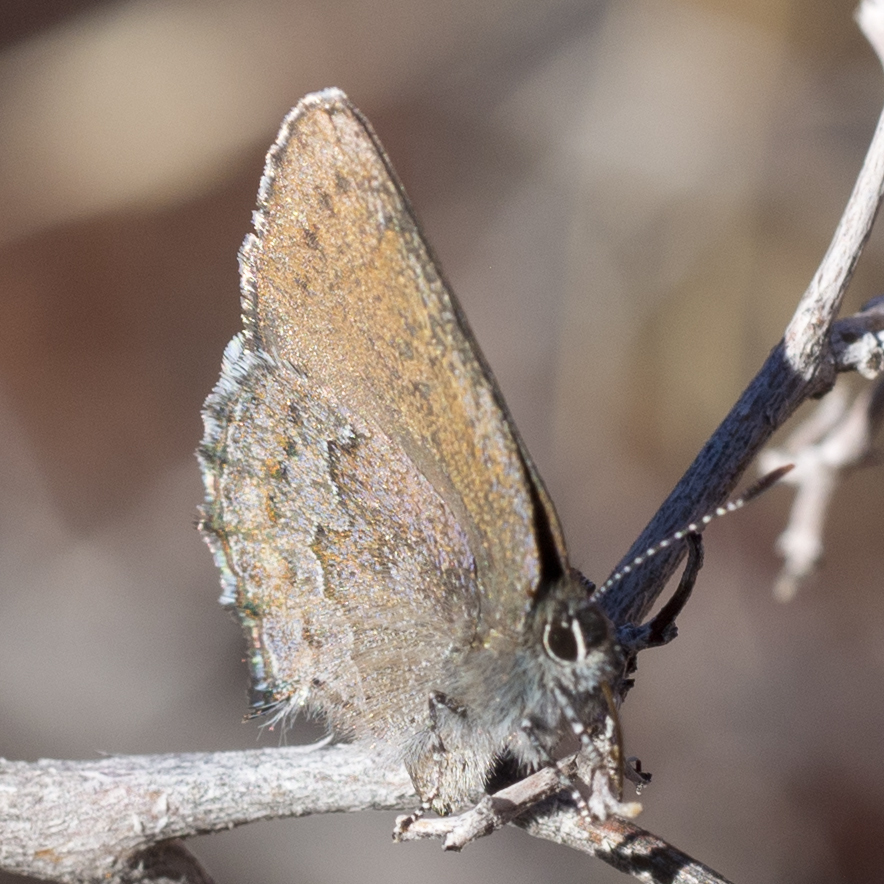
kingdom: Animalia
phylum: Arthropoda
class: Insecta
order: Lepidoptera
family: Lycaenidae
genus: Callophrys
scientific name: Callophrys fotis
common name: Desert elfin
